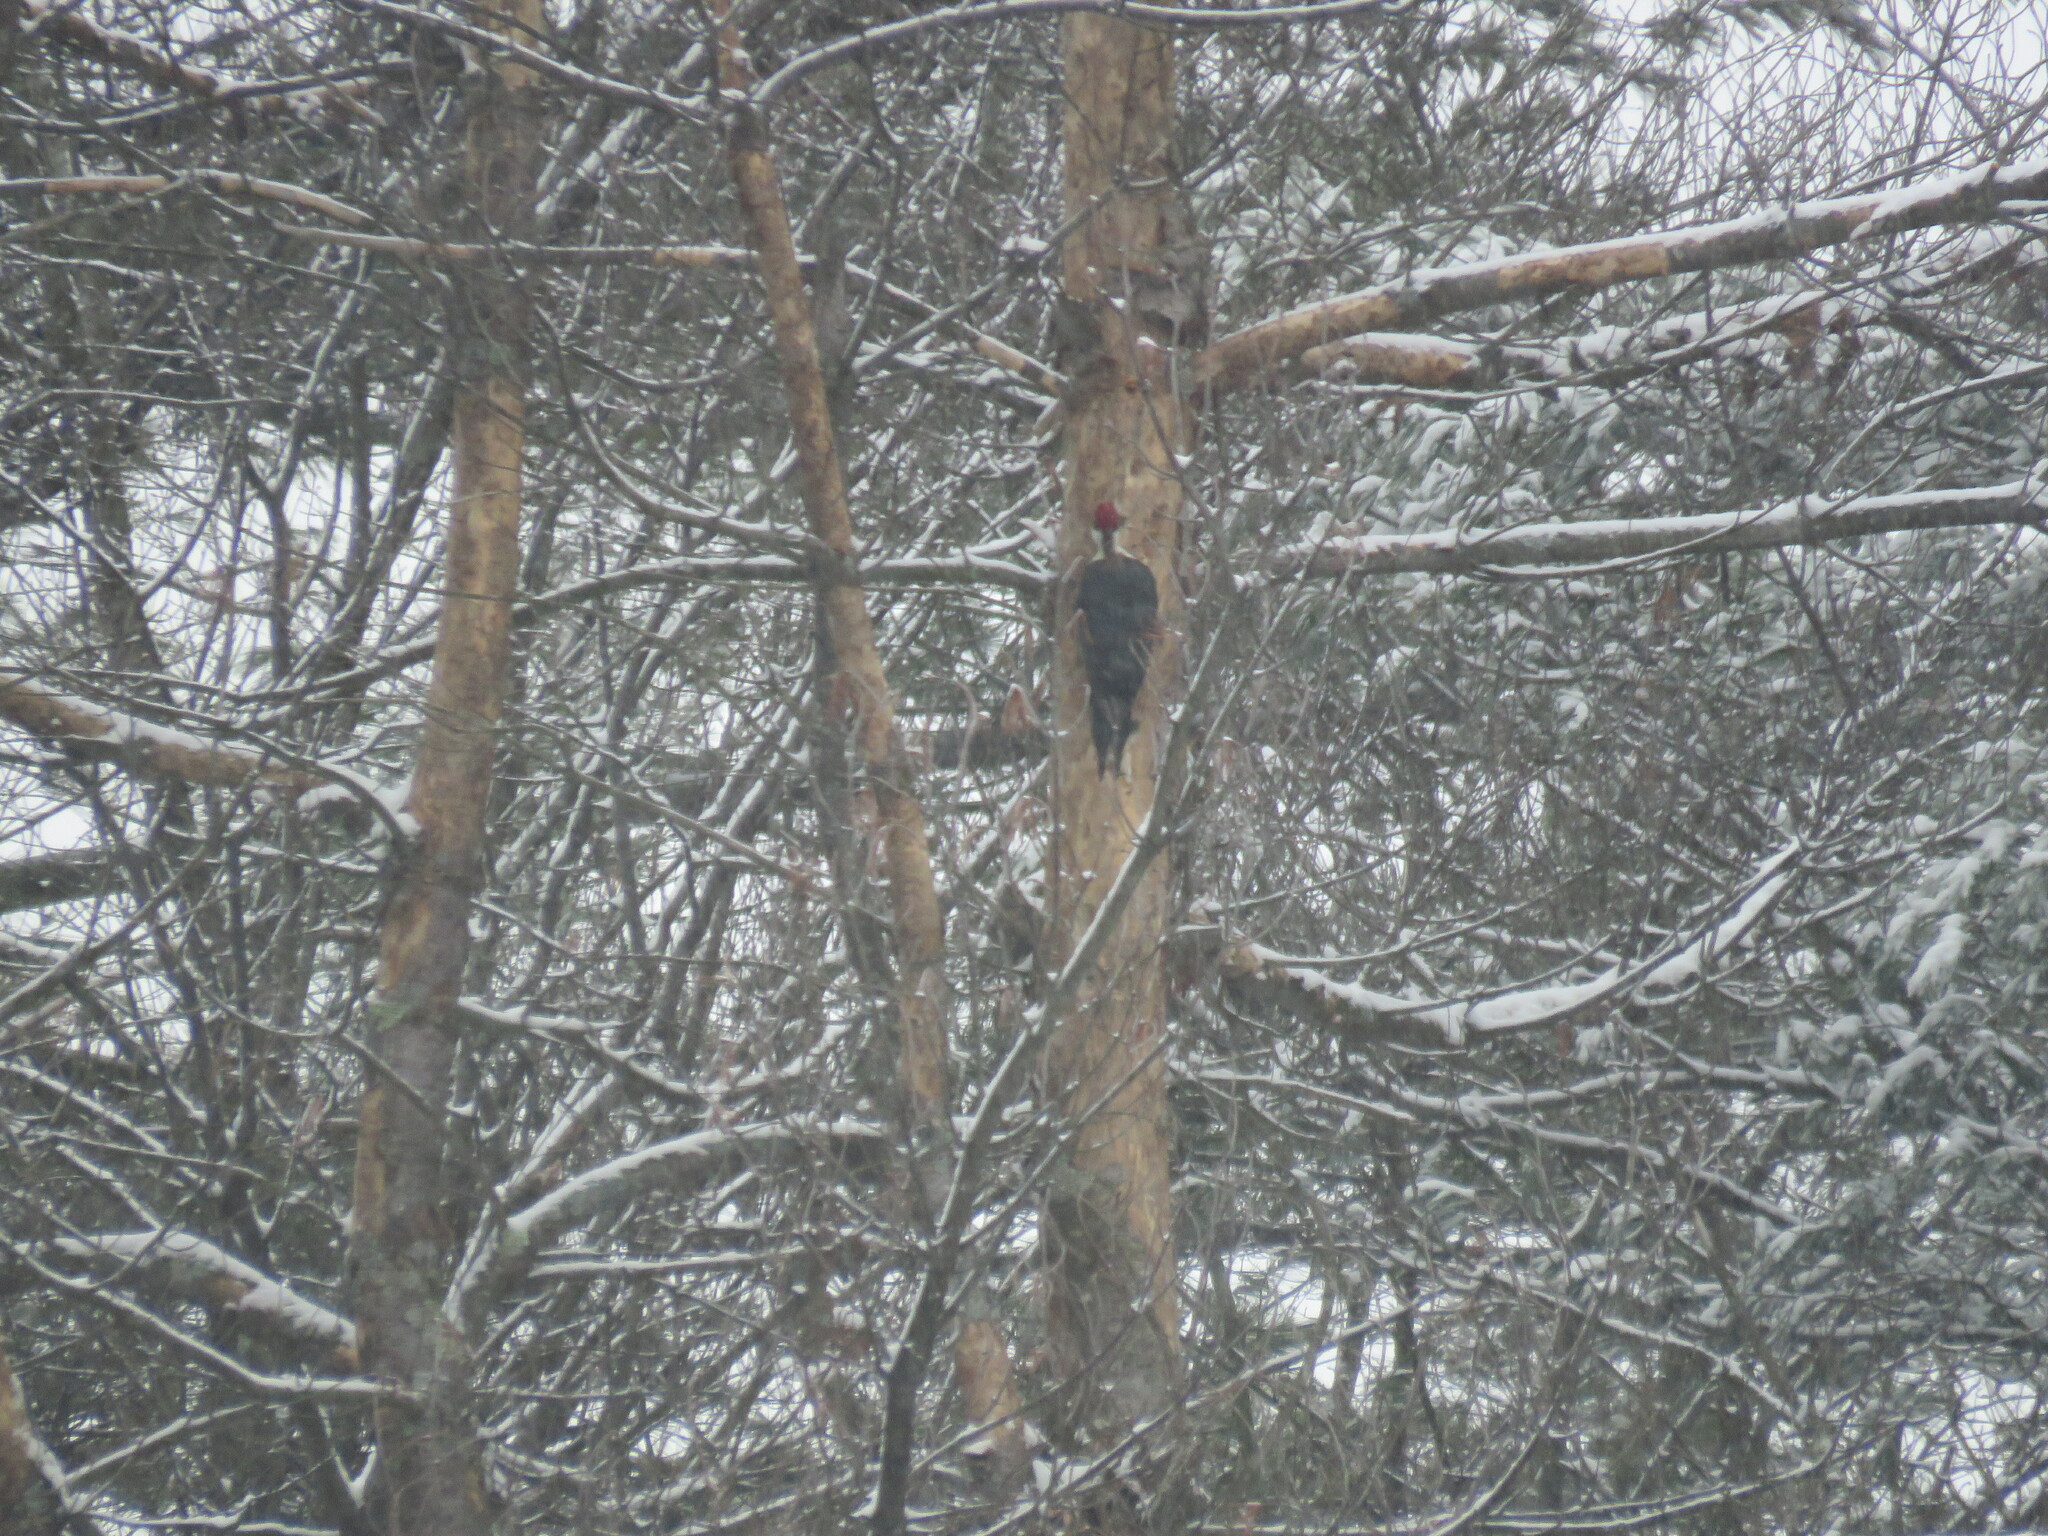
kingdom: Animalia
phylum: Chordata
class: Aves
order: Piciformes
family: Picidae
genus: Dryocopus
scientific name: Dryocopus pileatus
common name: Pileated woodpecker
